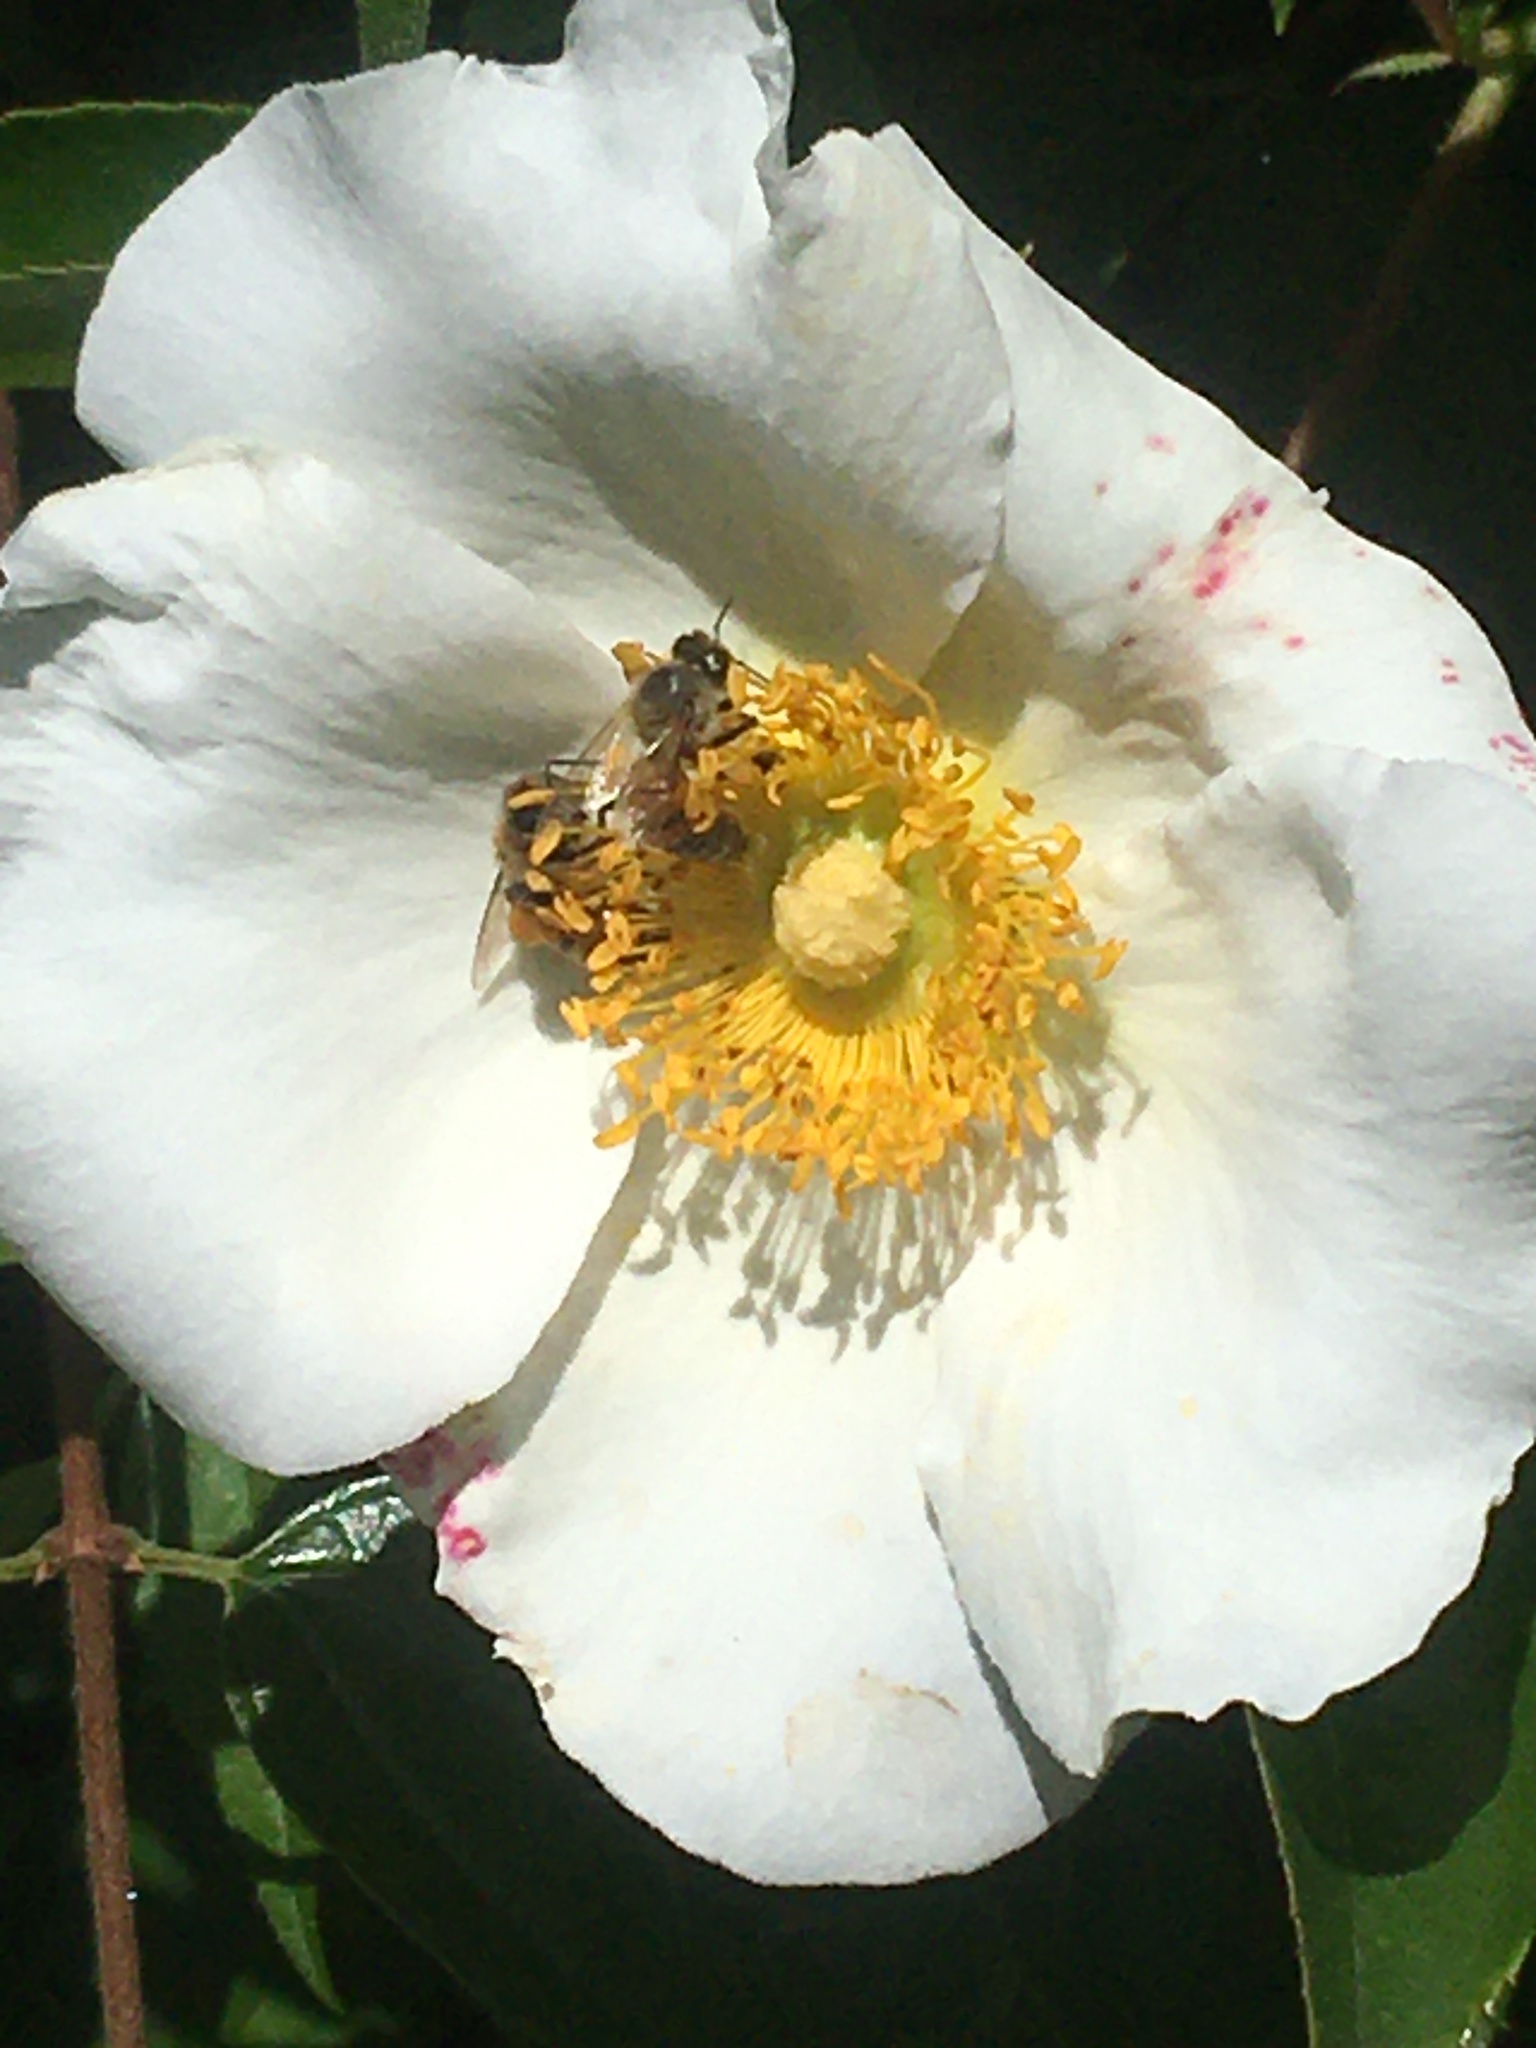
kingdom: Animalia
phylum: Arthropoda
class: Insecta
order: Hymenoptera
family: Apidae
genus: Apis
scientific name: Apis mellifera
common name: Honey bee
